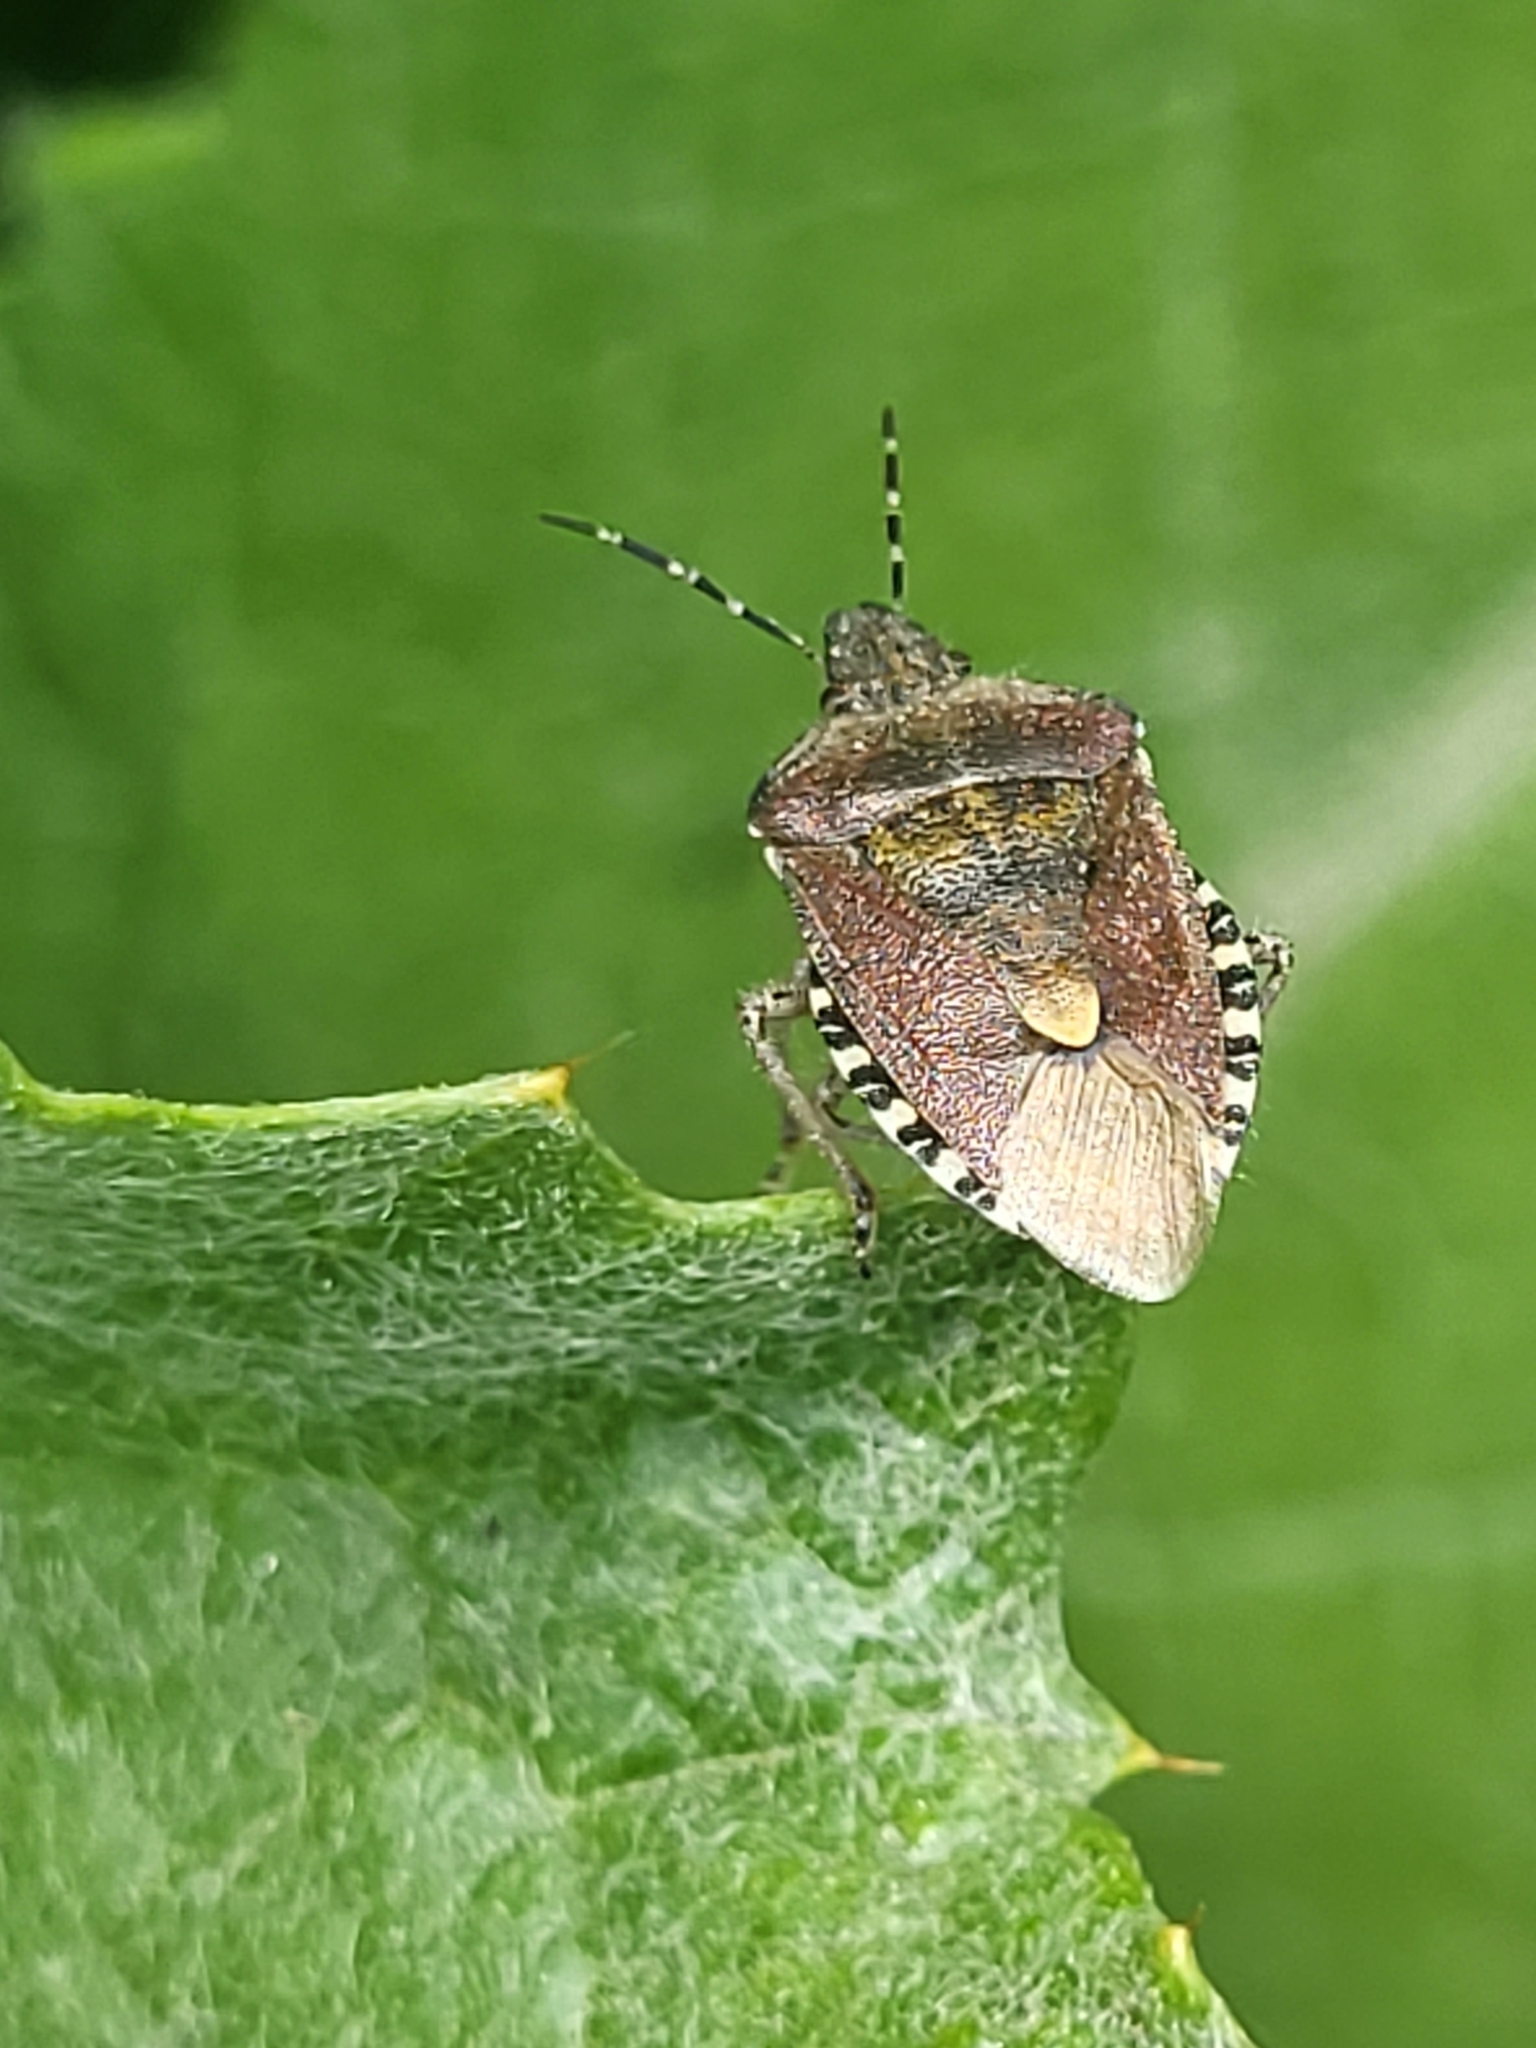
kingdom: Animalia
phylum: Arthropoda
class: Insecta
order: Hemiptera
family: Pentatomidae
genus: Dolycoris
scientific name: Dolycoris baccarum
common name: Sloe bug
